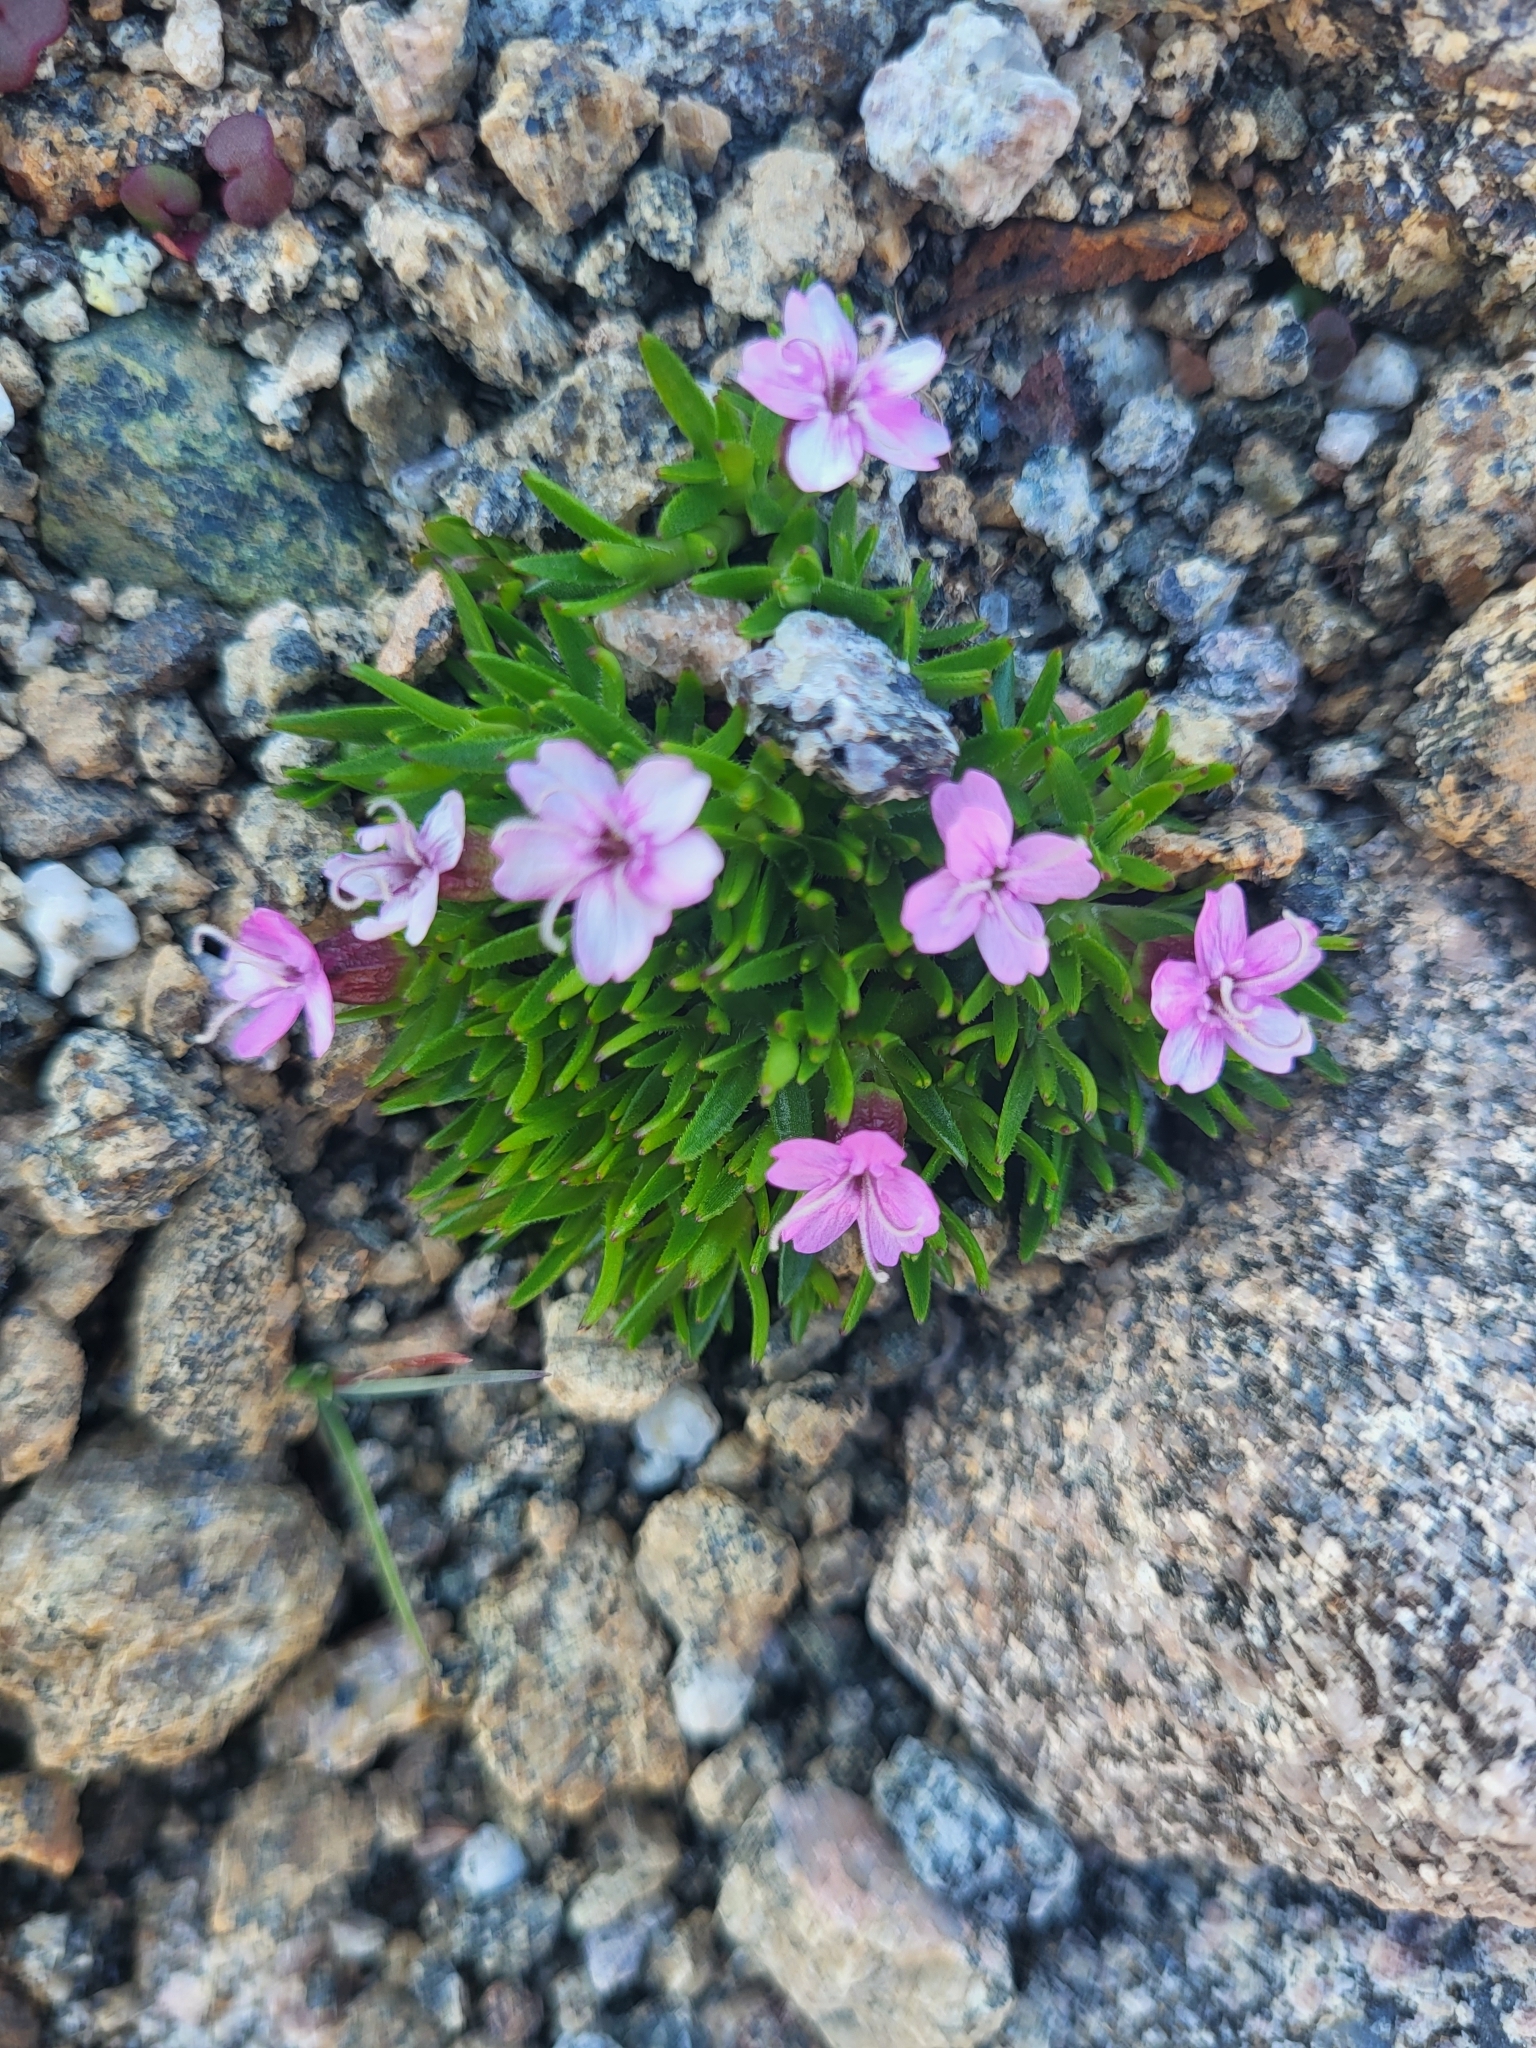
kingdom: Plantae
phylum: Tracheophyta
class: Magnoliopsida
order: Caryophyllales
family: Caryophyllaceae
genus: Silene
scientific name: Silene acaulis
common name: Moss campion
